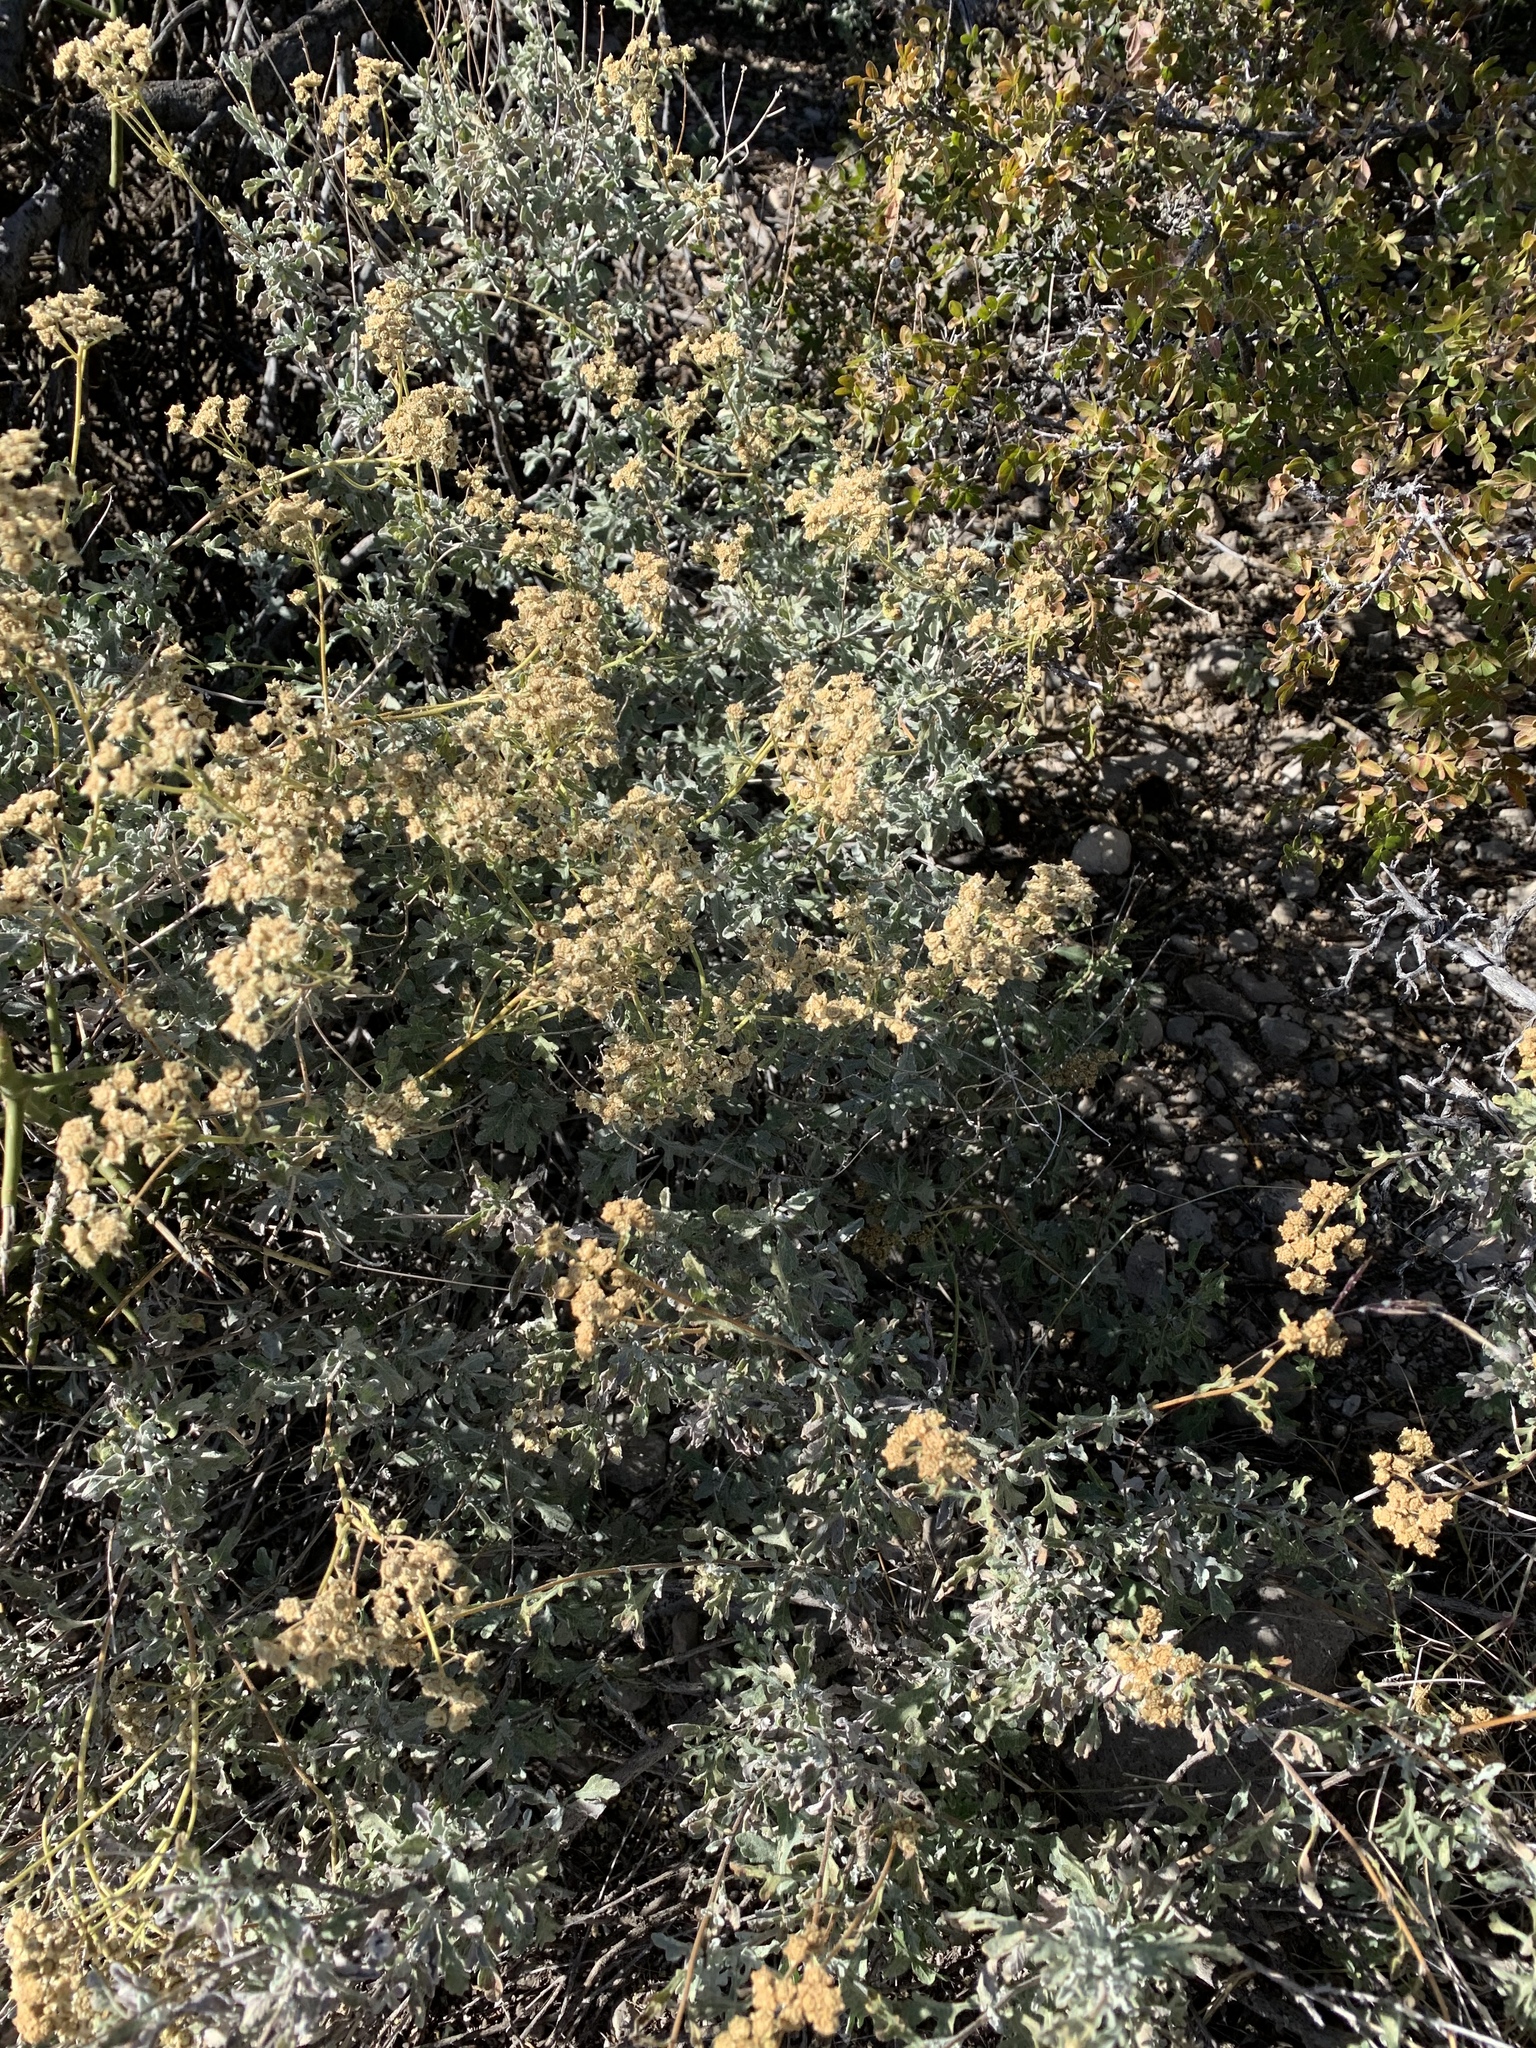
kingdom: Plantae
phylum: Tracheophyta
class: Magnoliopsida
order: Asterales
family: Asteraceae
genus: Parthenium
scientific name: Parthenium incanum
